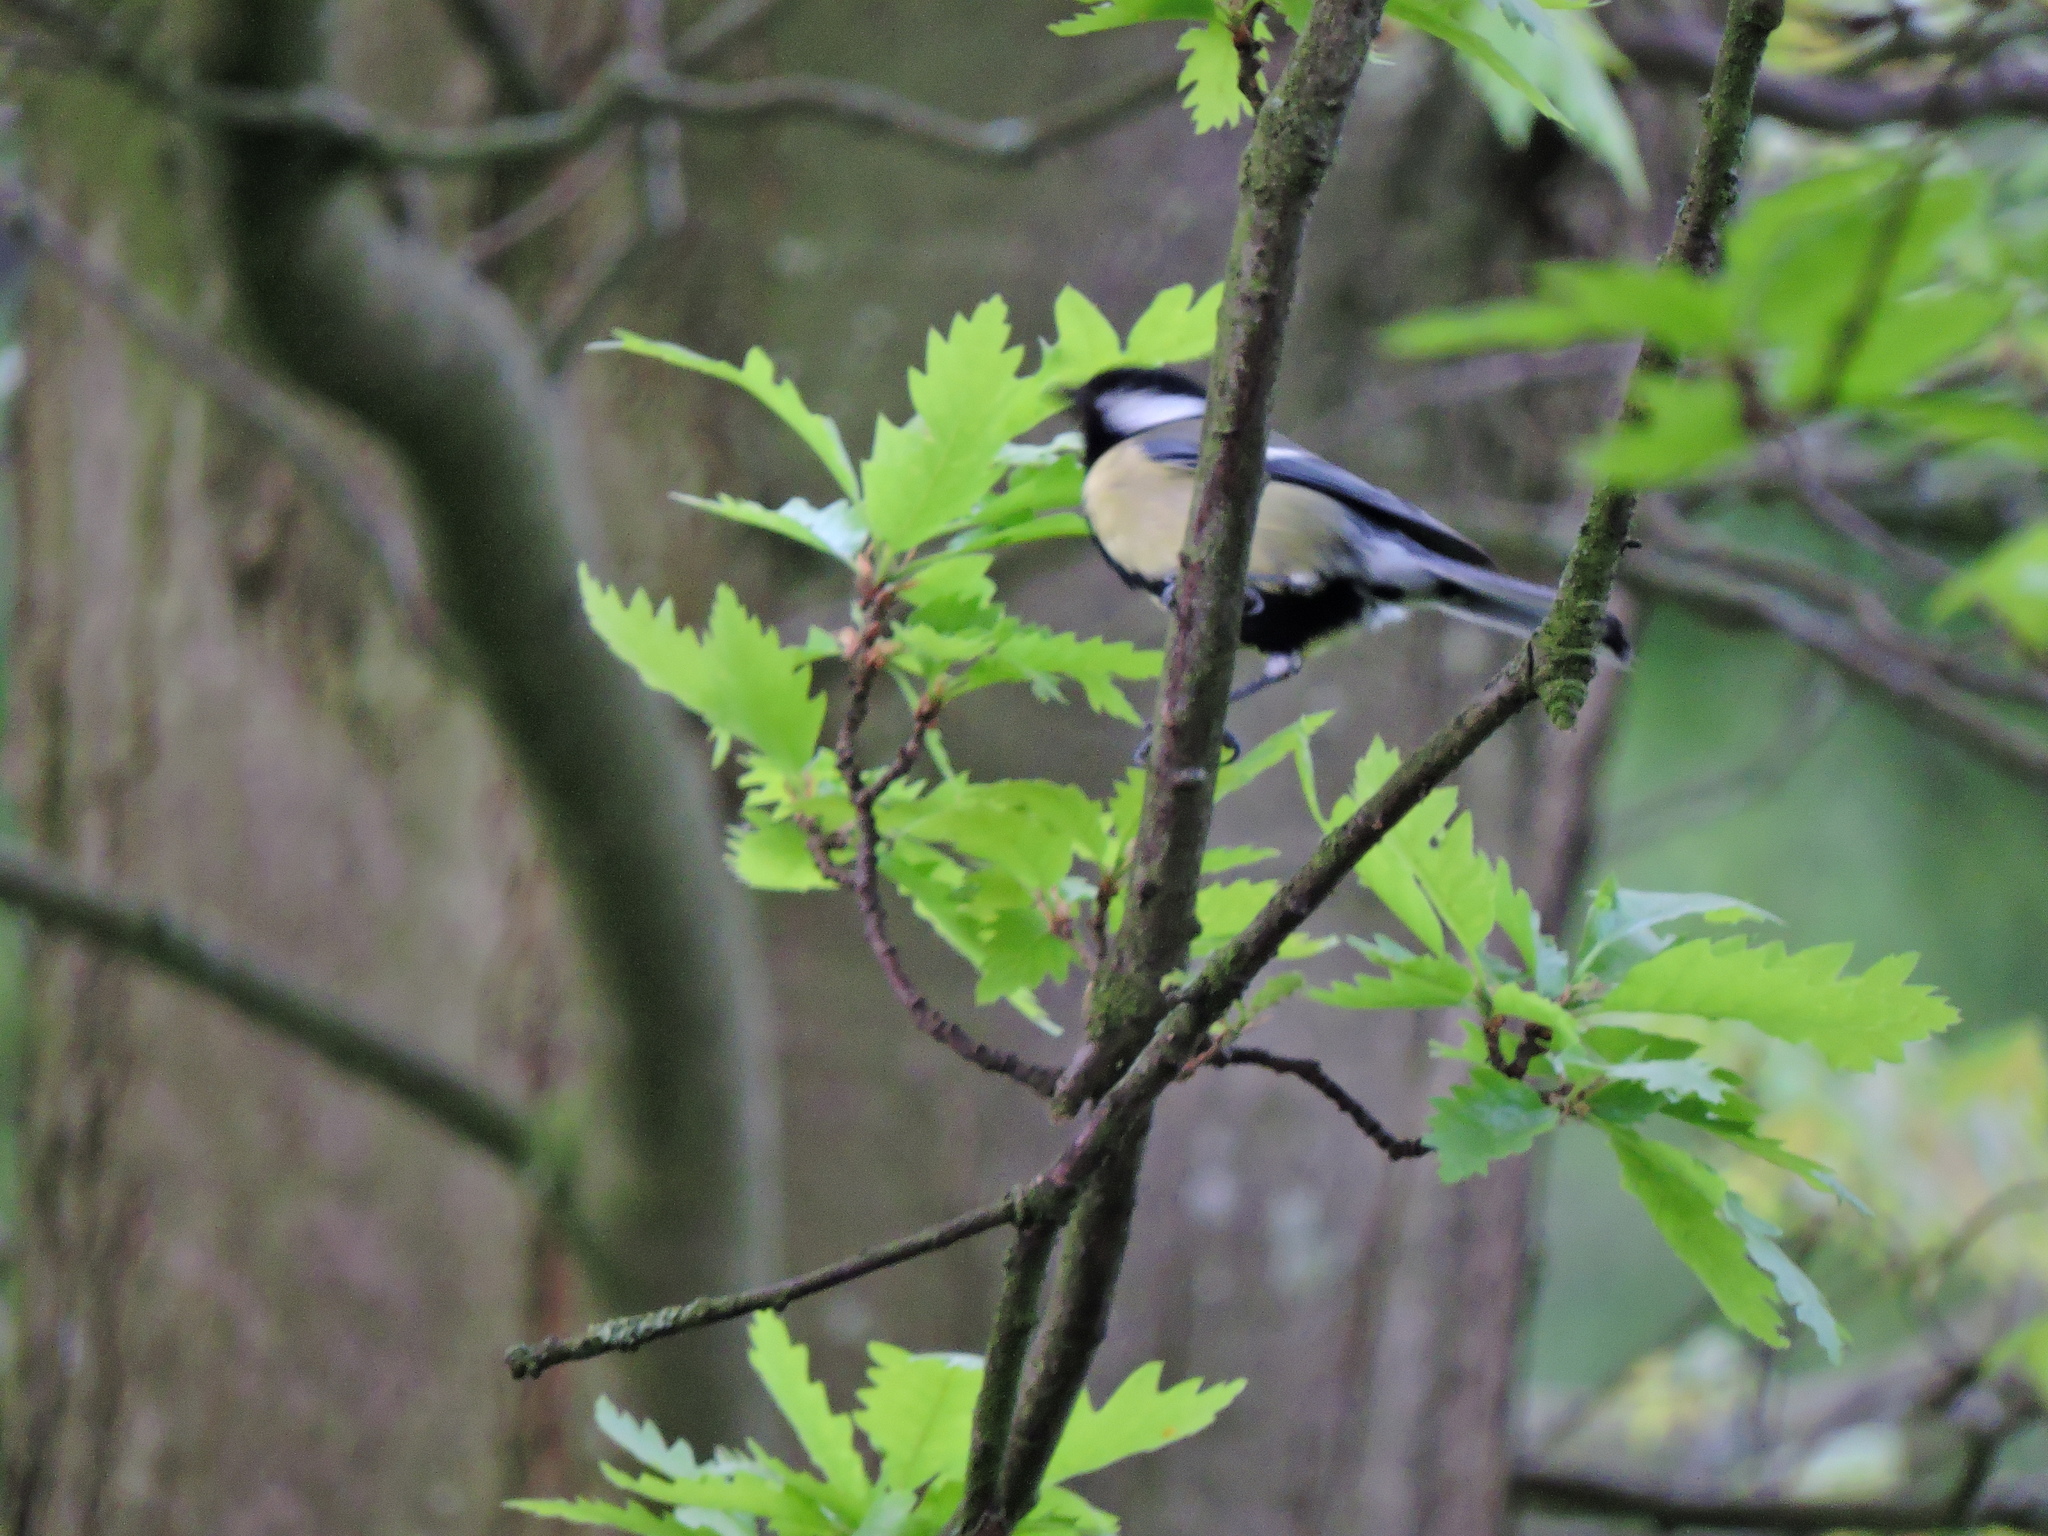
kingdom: Animalia
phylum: Chordata
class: Aves
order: Passeriformes
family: Paridae
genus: Parus
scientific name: Parus major
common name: Great tit
